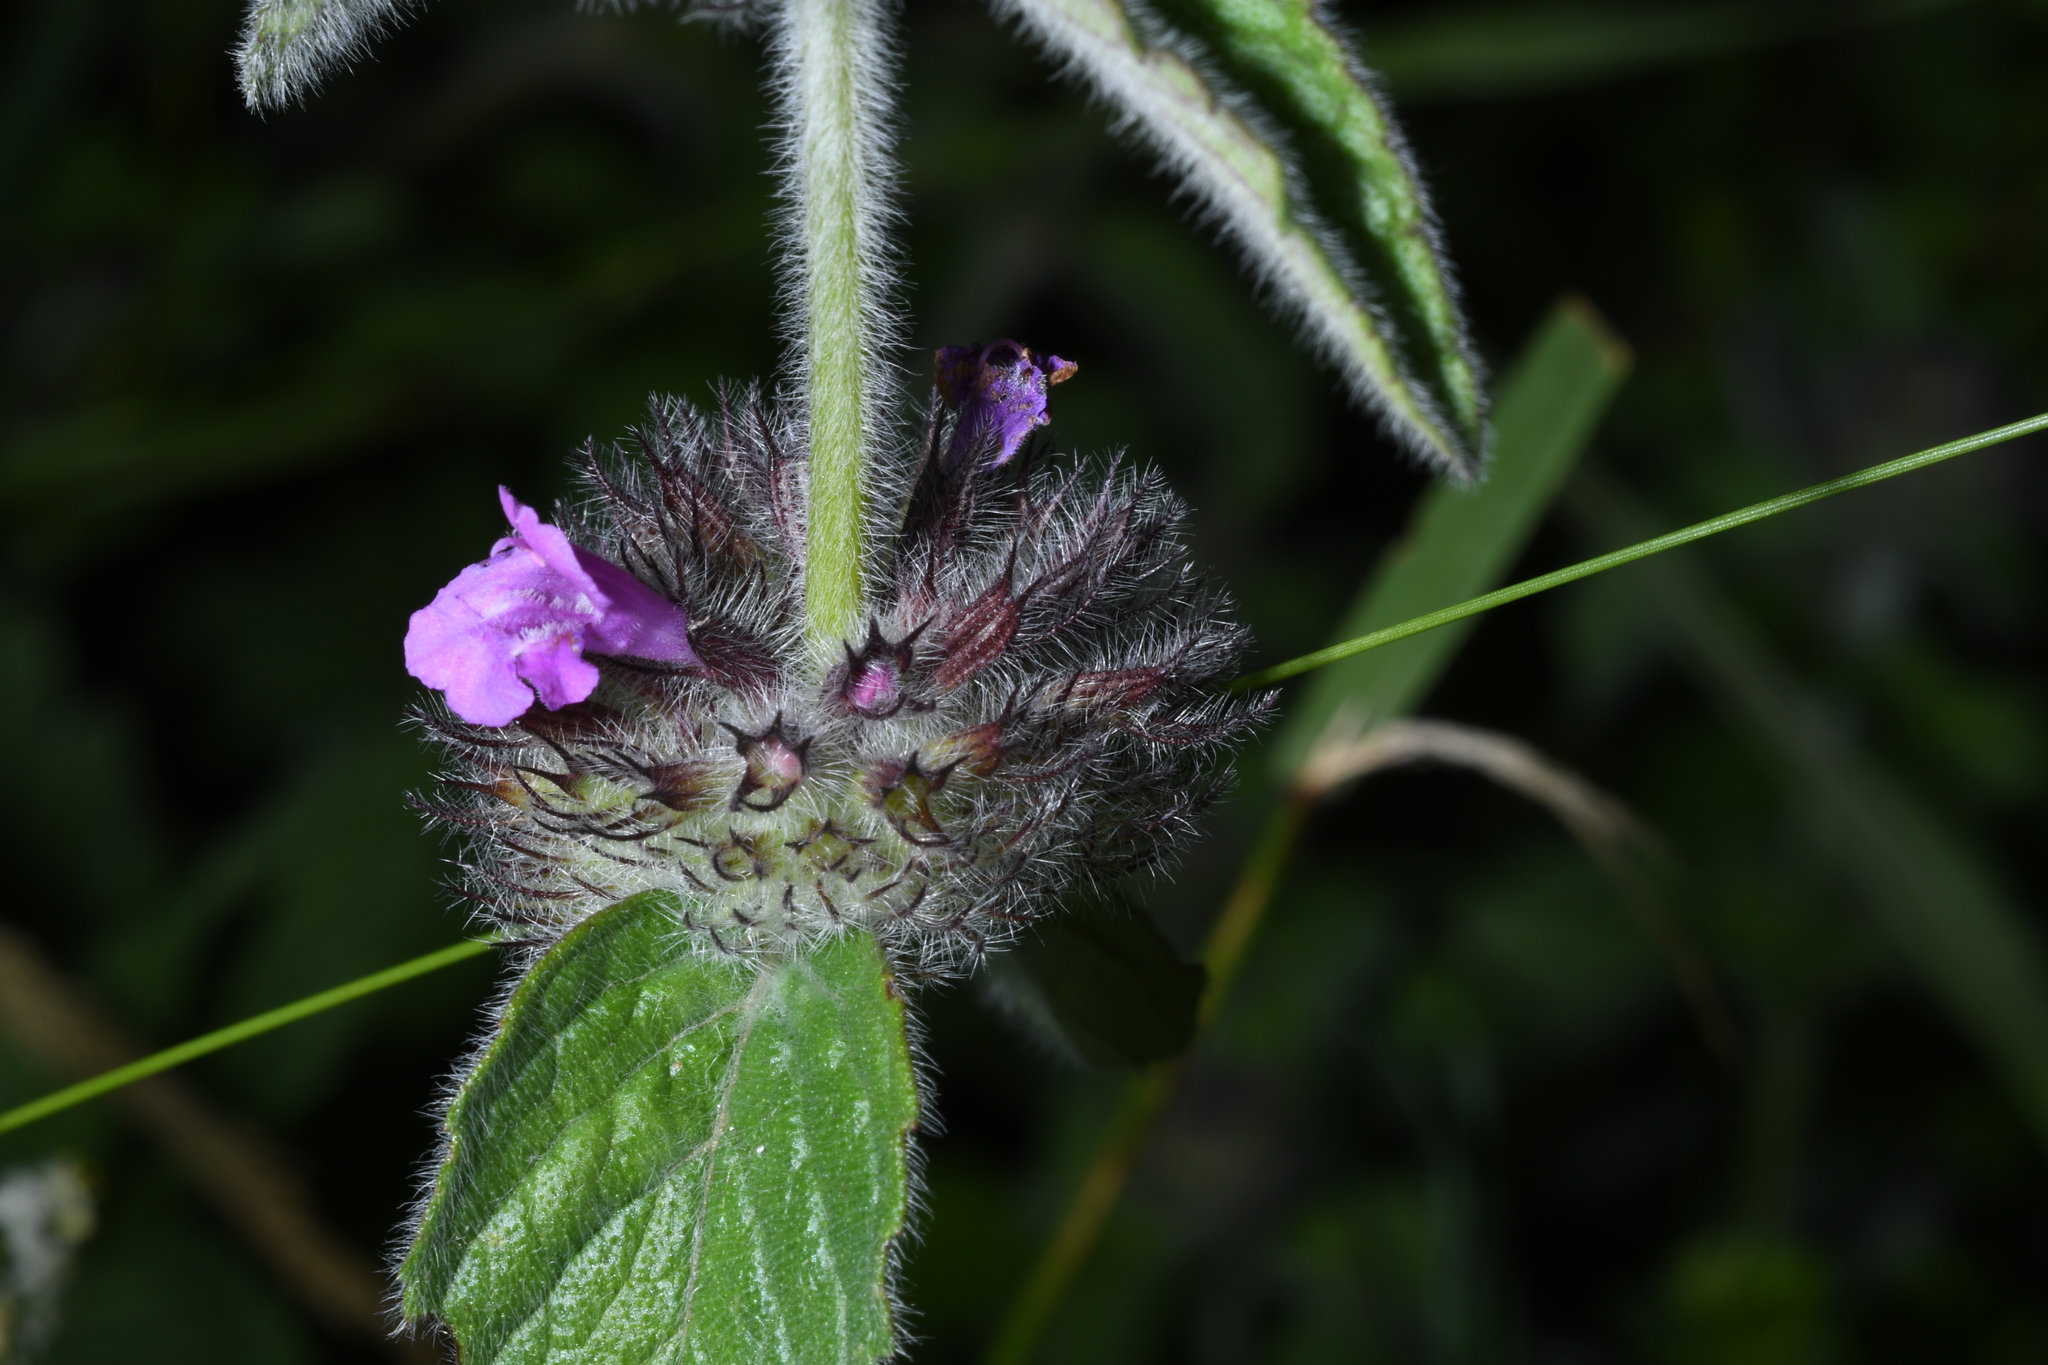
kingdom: Plantae
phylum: Tracheophyta
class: Magnoliopsida
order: Lamiales
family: Lamiaceae
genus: Clinopodium
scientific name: Clinopodium vulgare
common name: Wild basil
